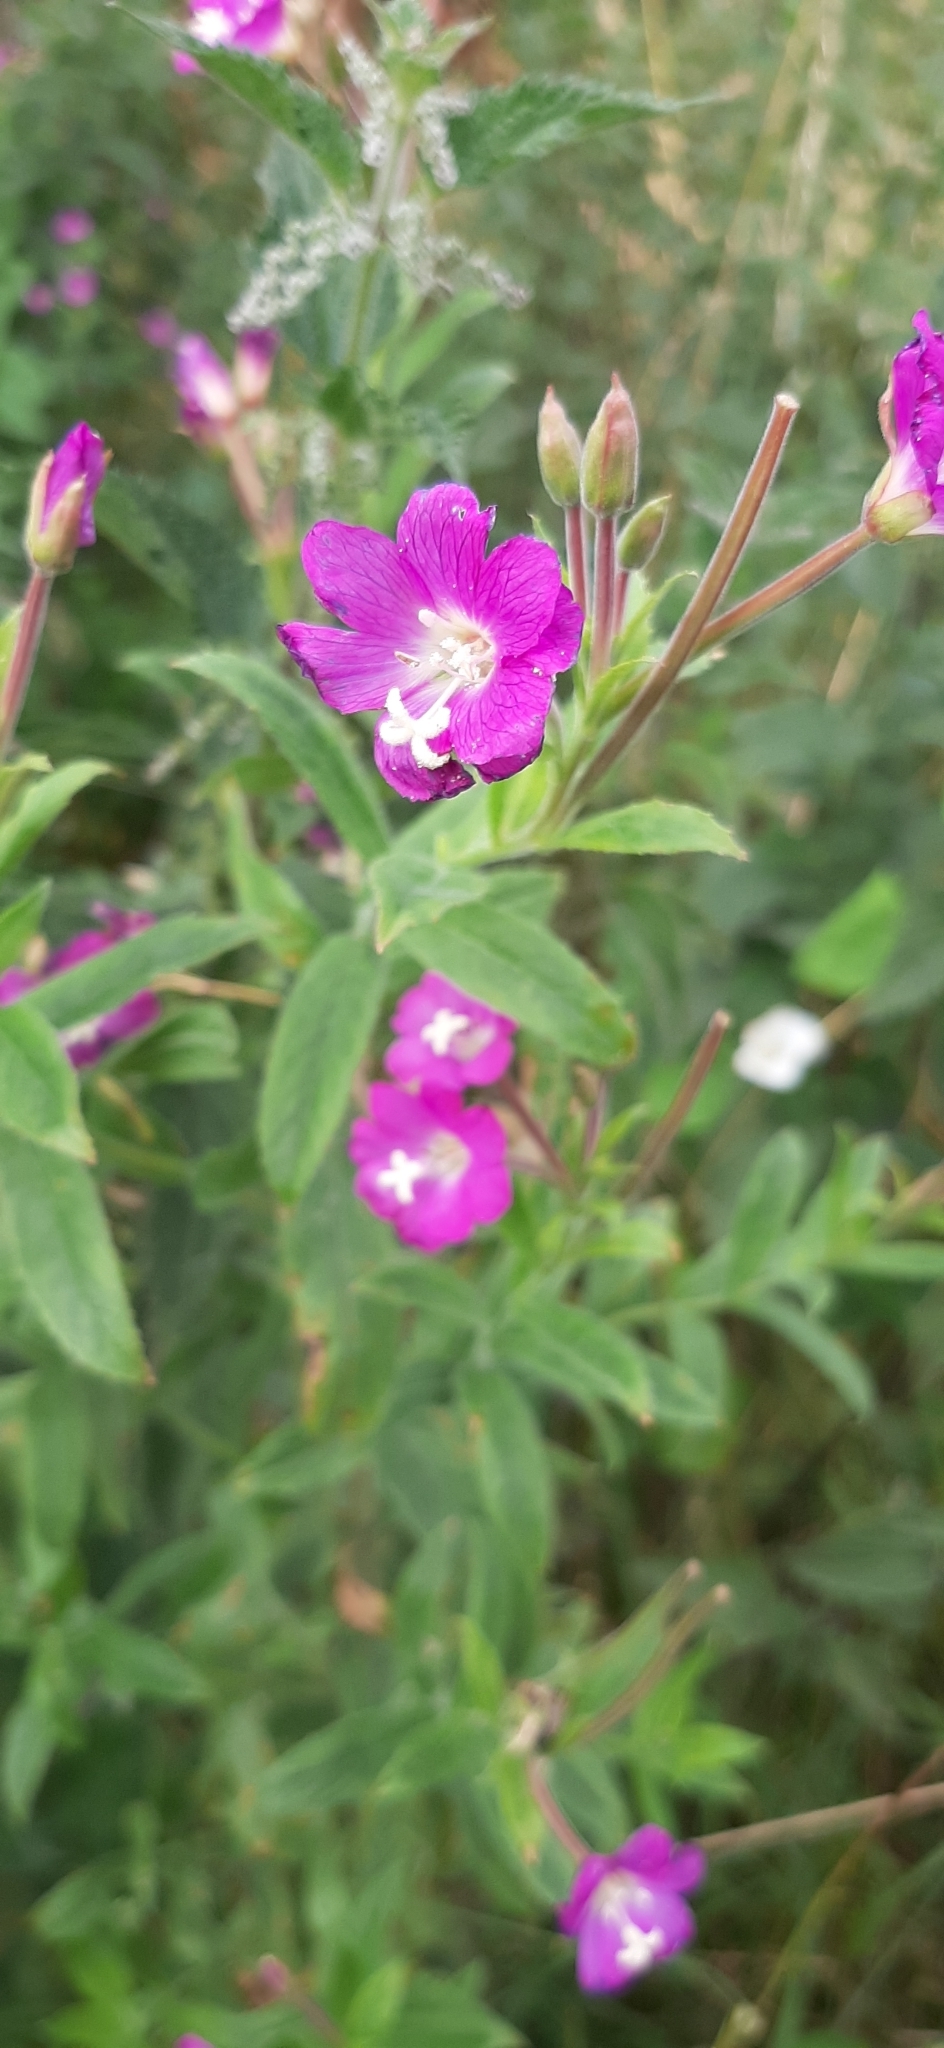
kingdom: Plantae
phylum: Tracheophyta
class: Magnoliopsida
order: Myrtales
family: Onagraceae
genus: Epilobium
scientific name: Epilobium hirsutum
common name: Great willowherb
